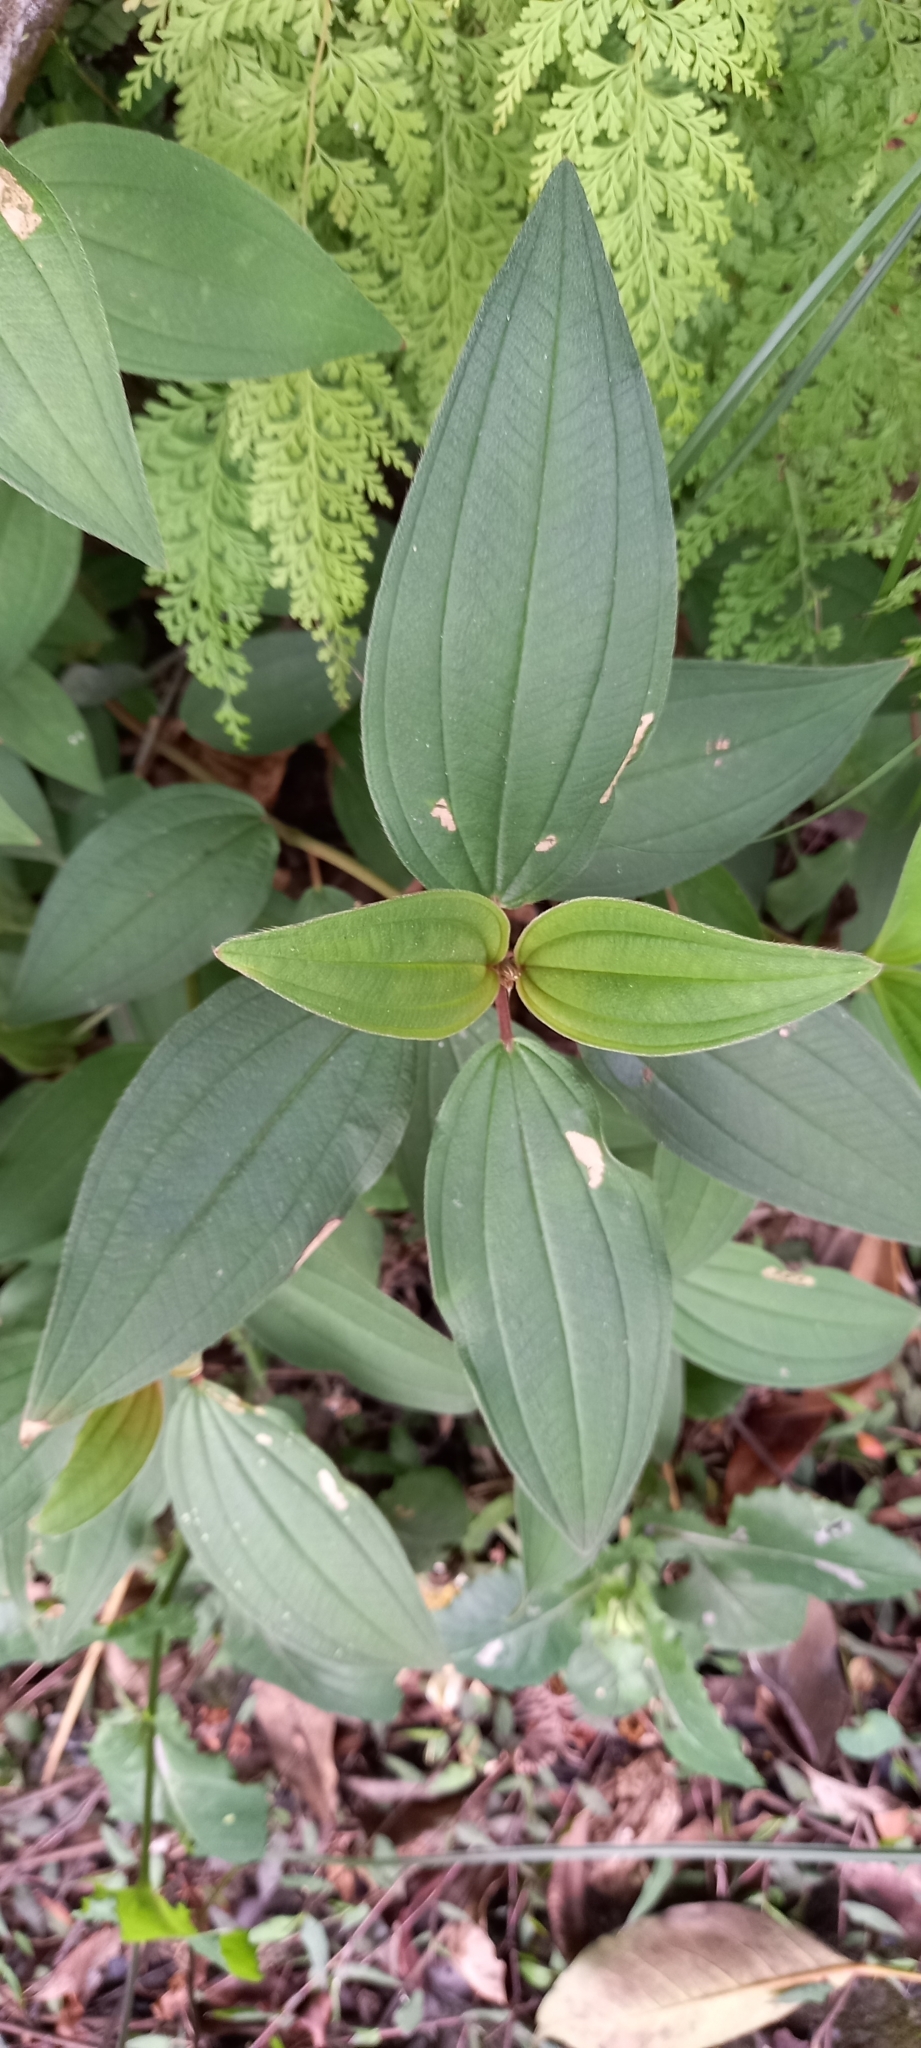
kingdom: Plantae
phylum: Tracheophyta
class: Magnoliopsida
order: Myrtales
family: Melastomataceae
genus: Melastoma
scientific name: Melastoma malabathricum
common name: Indian-rhododendron
